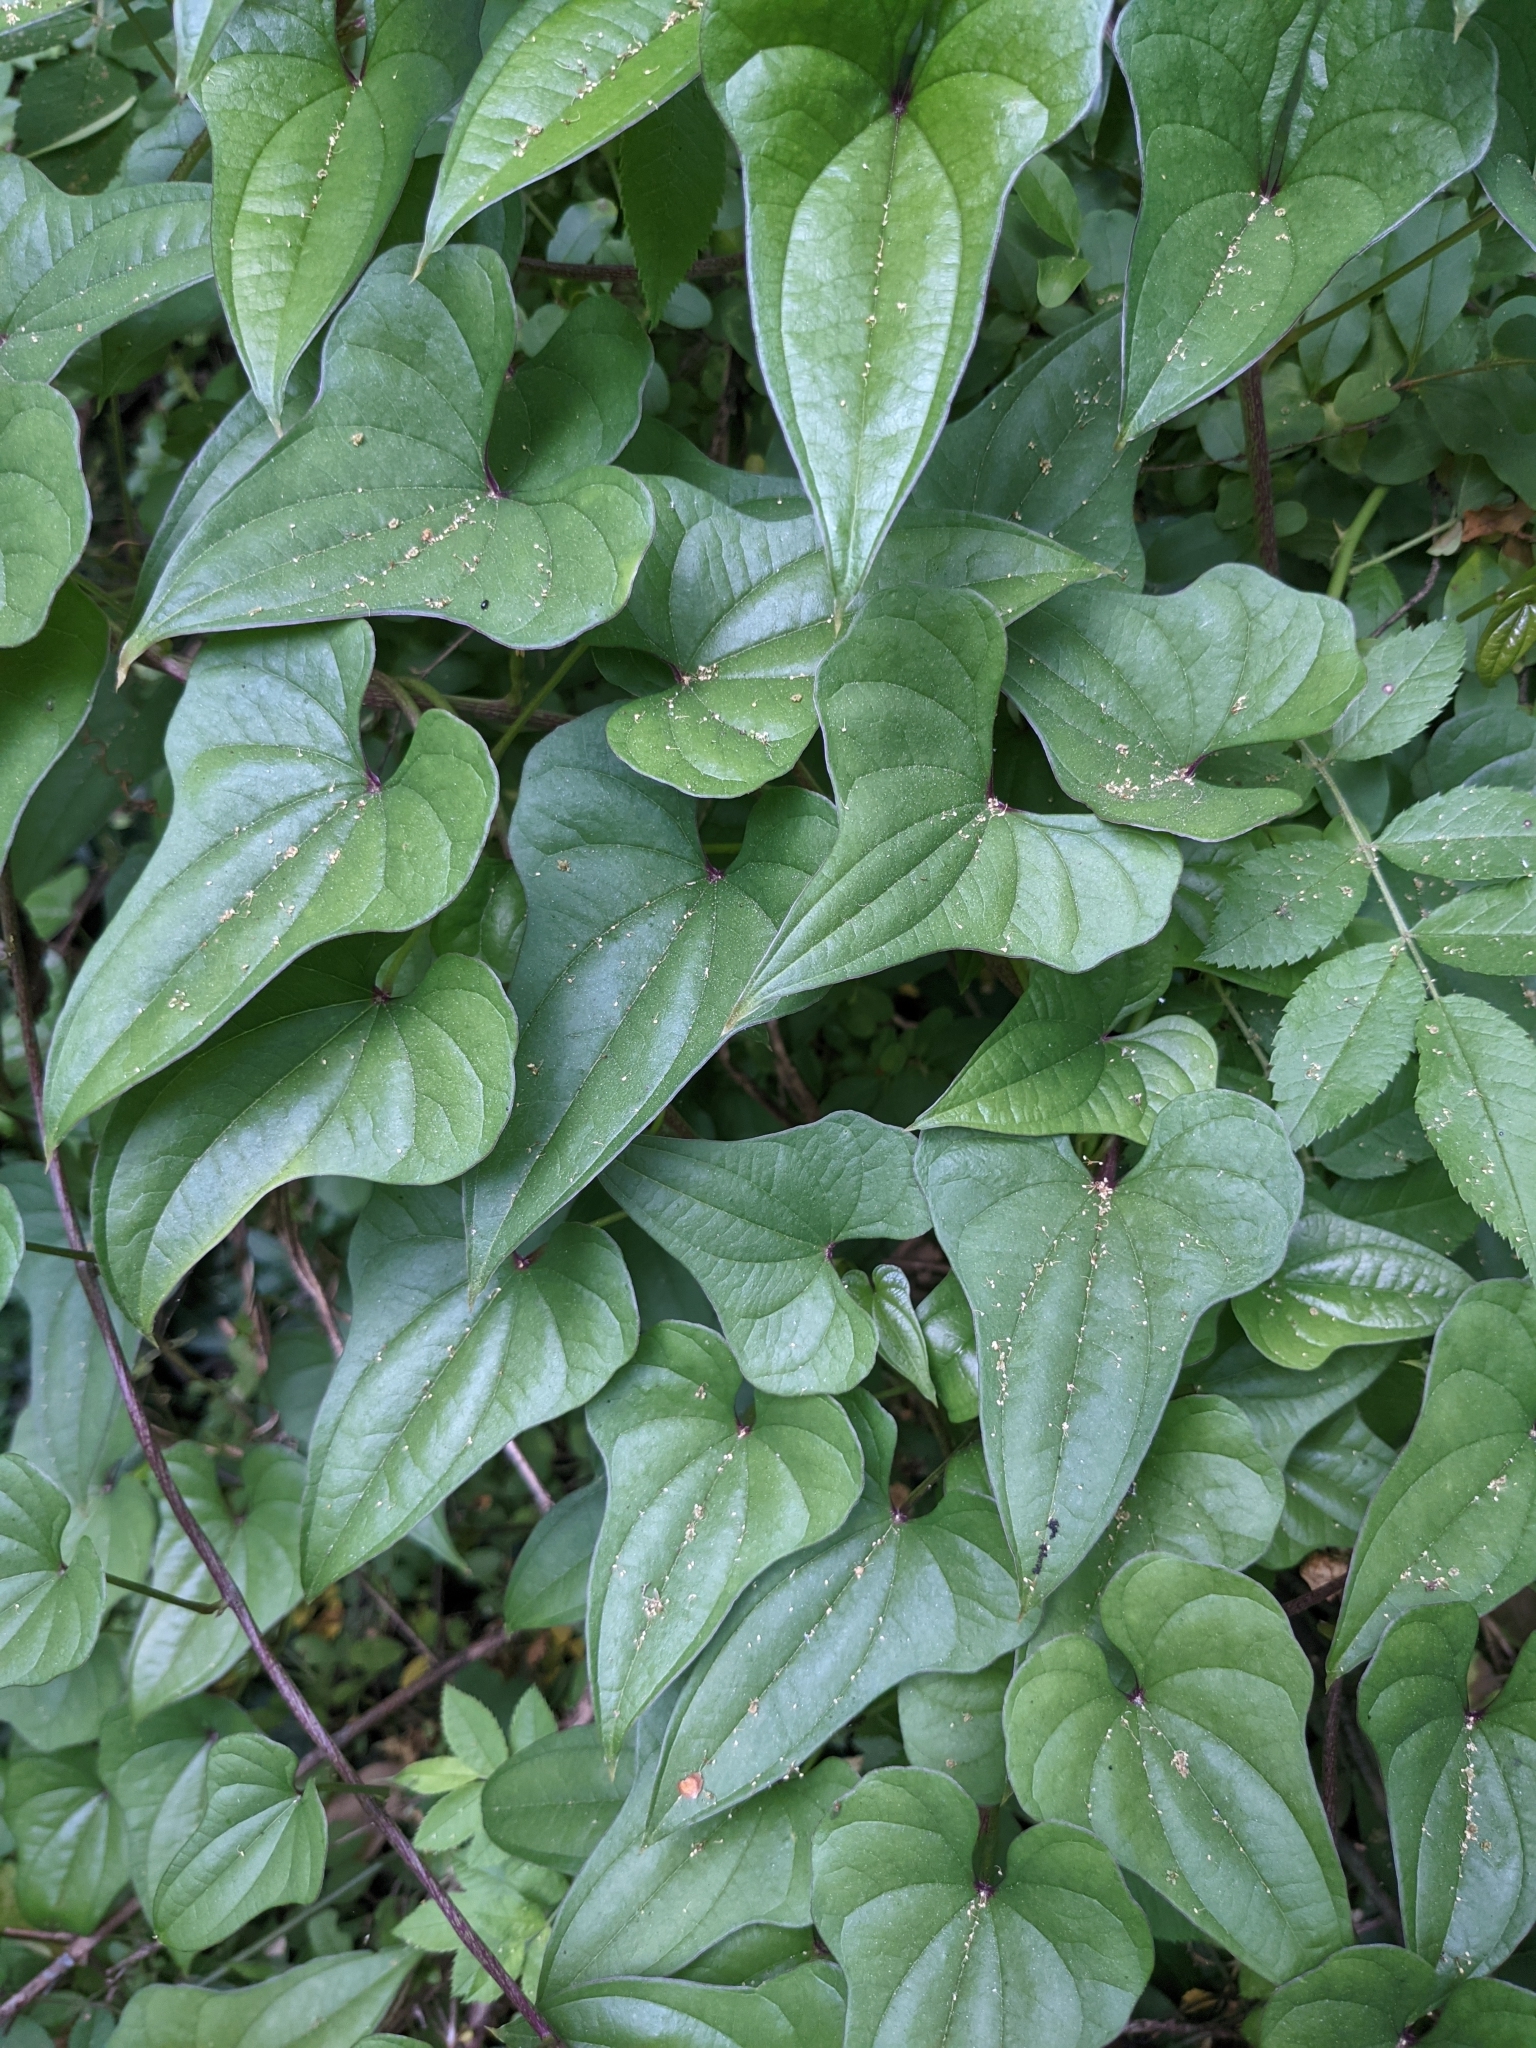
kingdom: Plantae
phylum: Tracheophyta
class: Liliopsida
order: Dioscoreales
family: Dioscoreaceae
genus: Dioscorea
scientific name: Dioscorea polystachya
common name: Chinese yam
